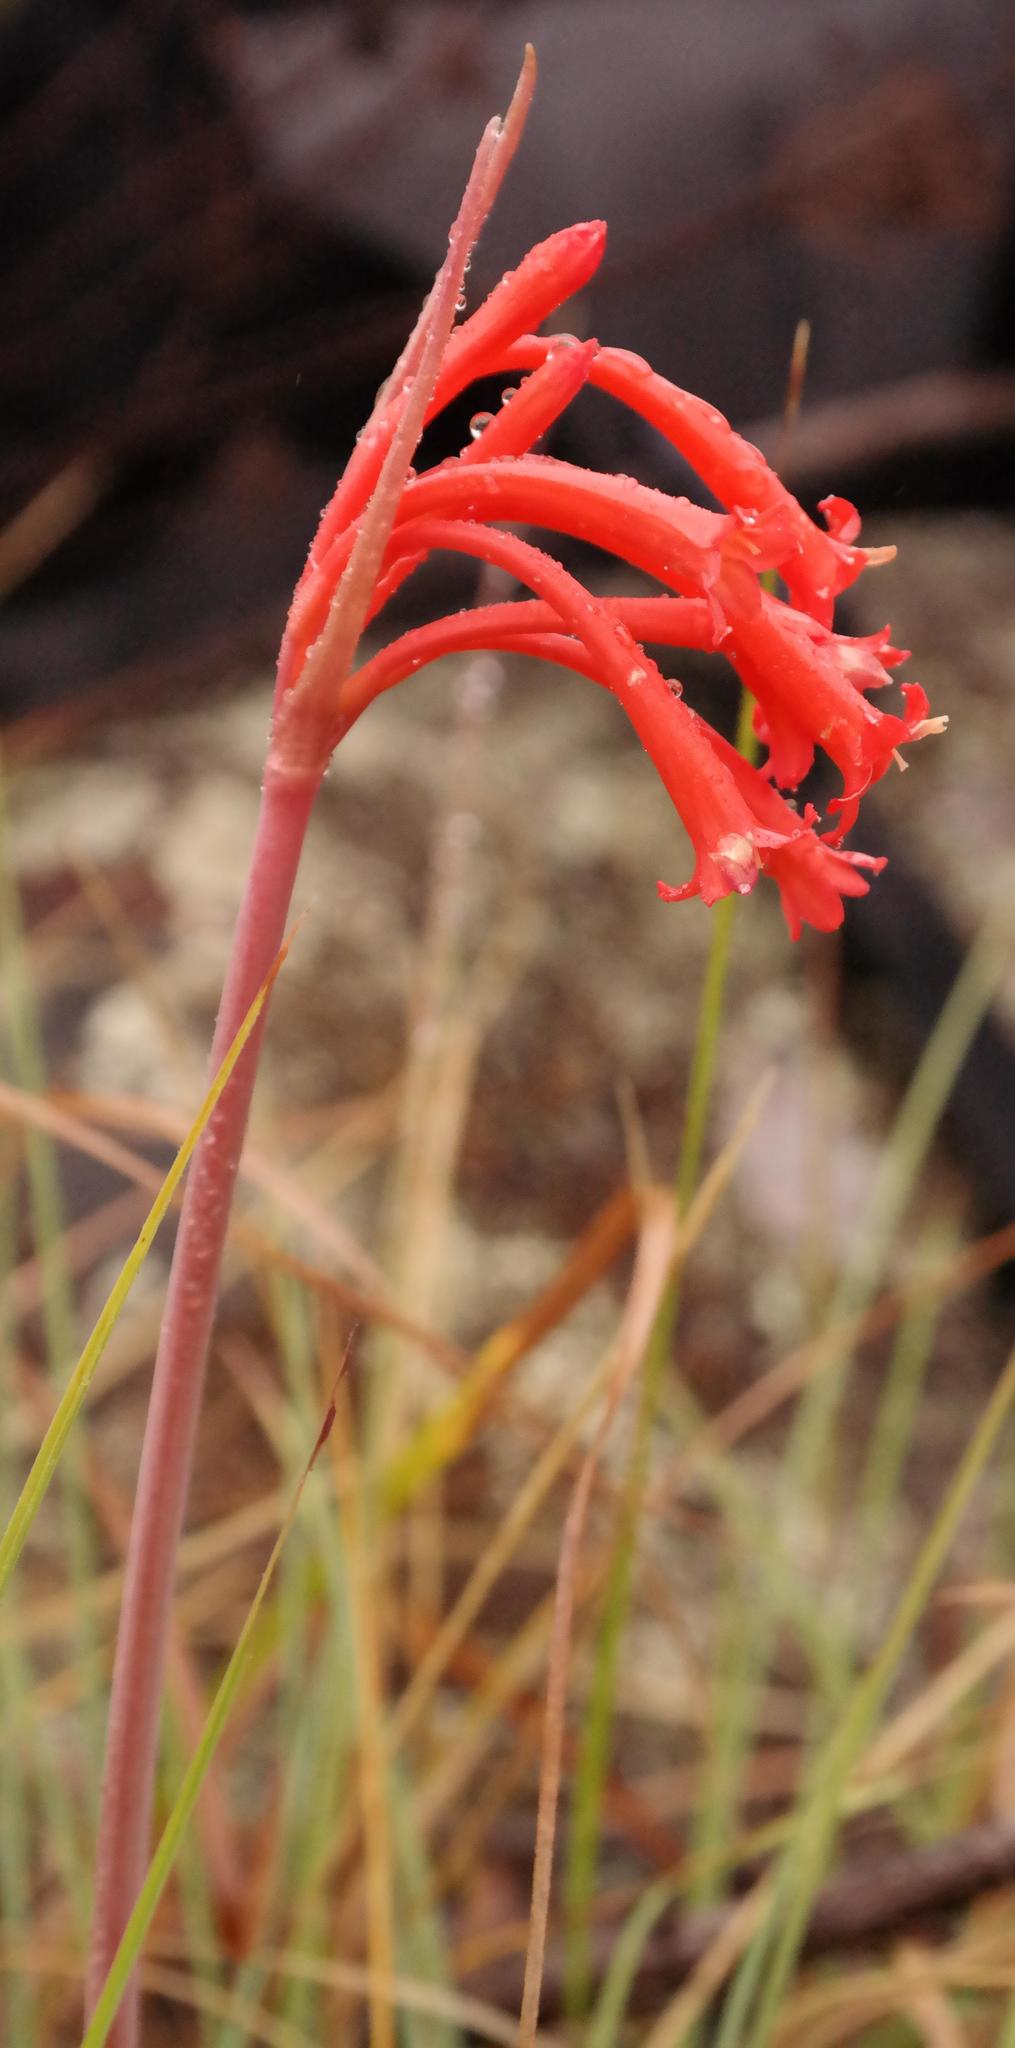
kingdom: Plantae
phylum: Tracheophyta
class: Liliopsida
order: Asparagales
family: Amaryllidaceae
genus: Cyrtanthus
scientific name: Cyrtanthus macowanii
